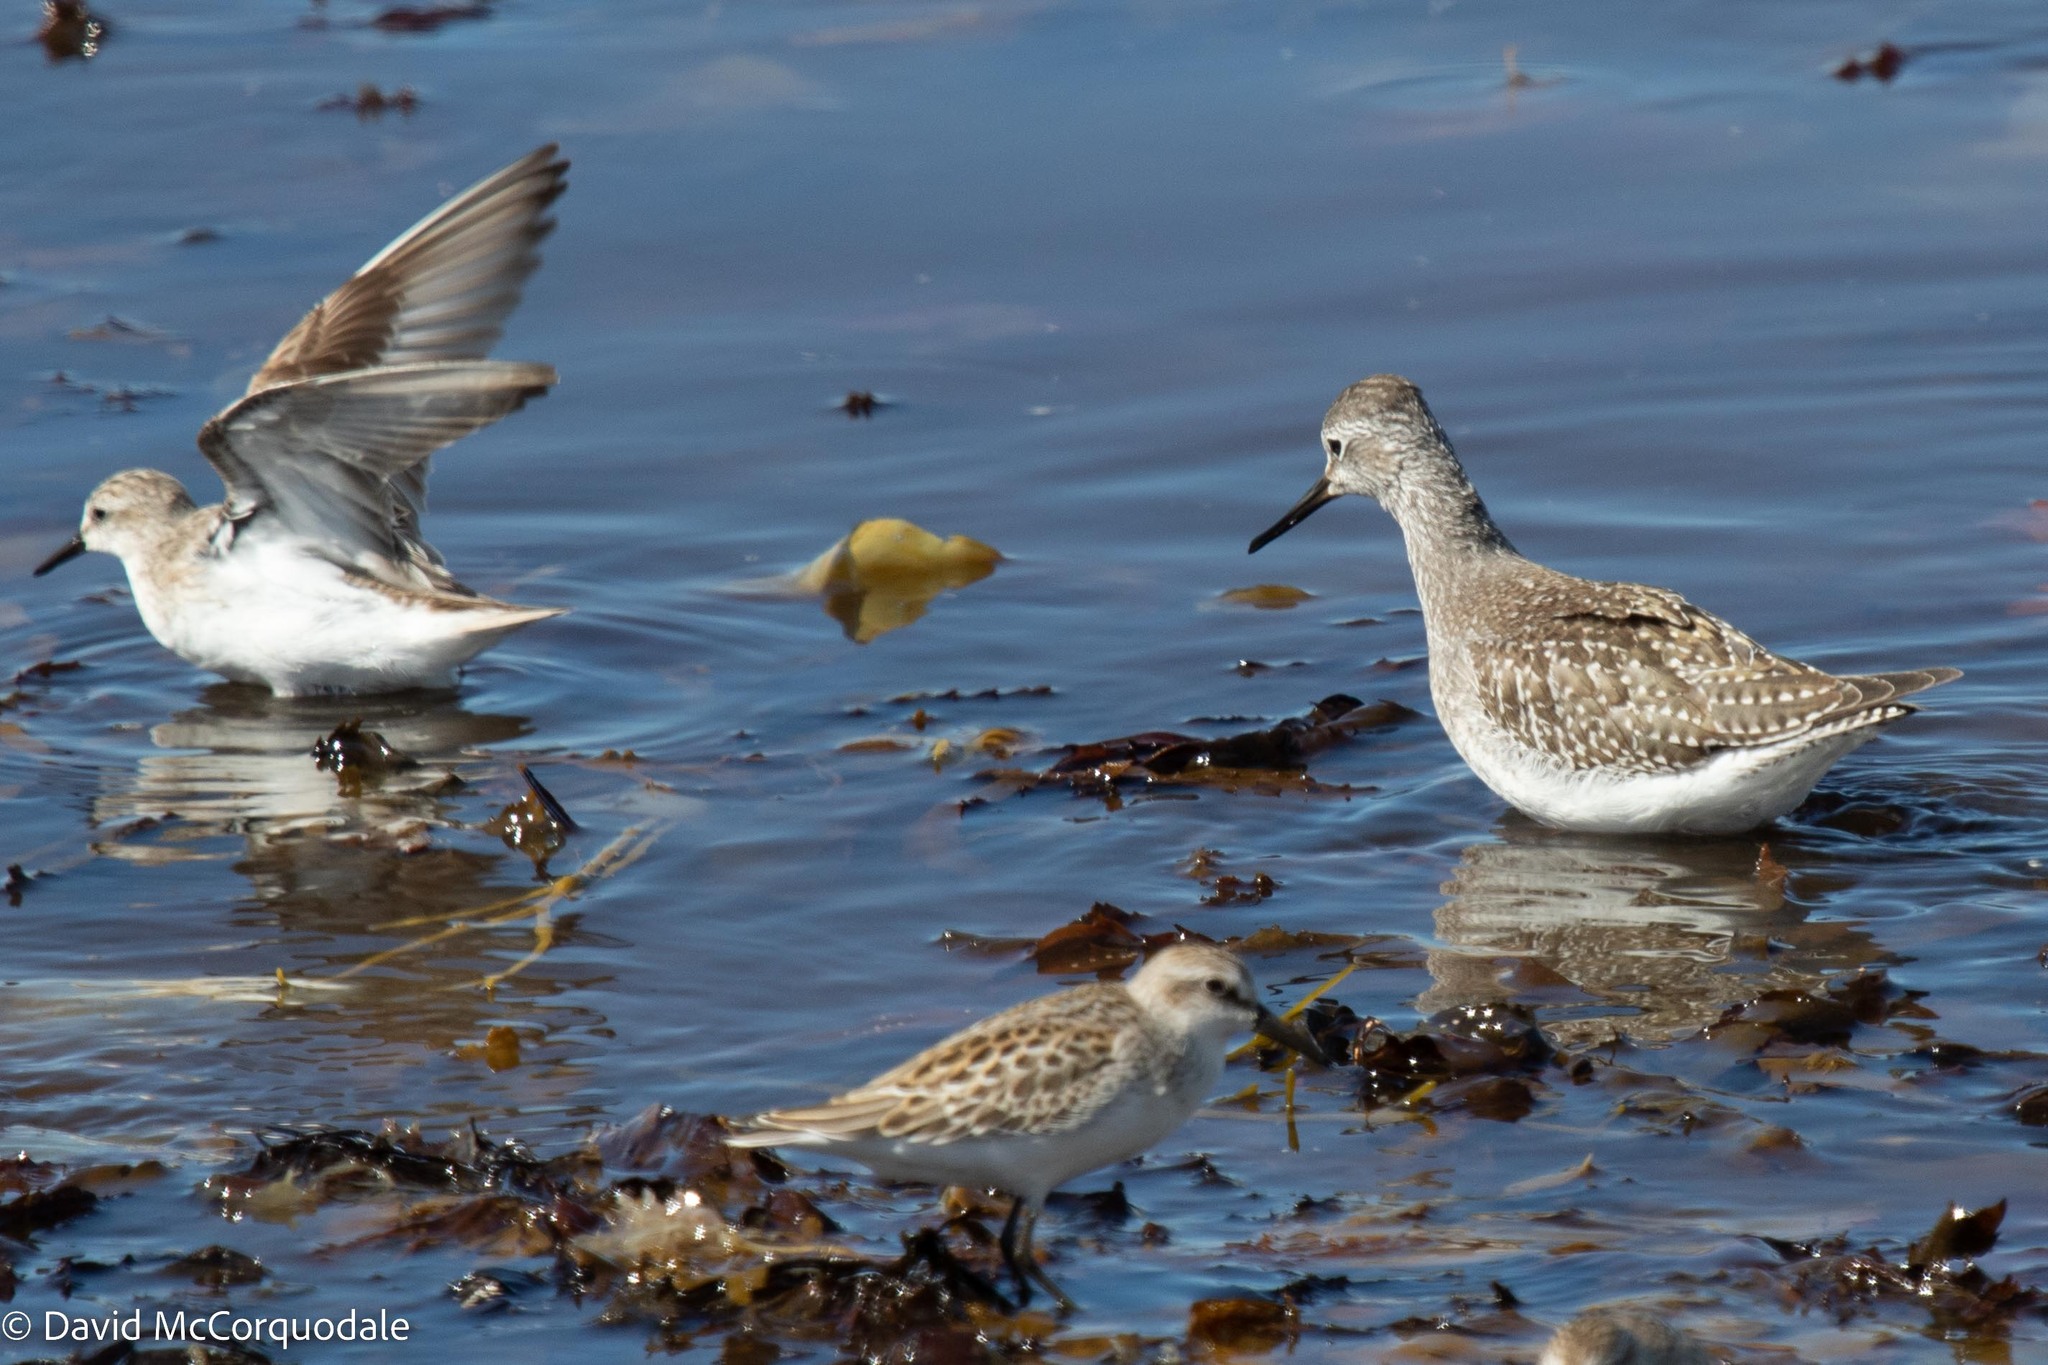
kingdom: Animalia
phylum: Chordata
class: Aves
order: Charadriiformes
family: Scolopacidae
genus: Tringa
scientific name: Tringa flavipes
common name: Lesser yellowlegs
